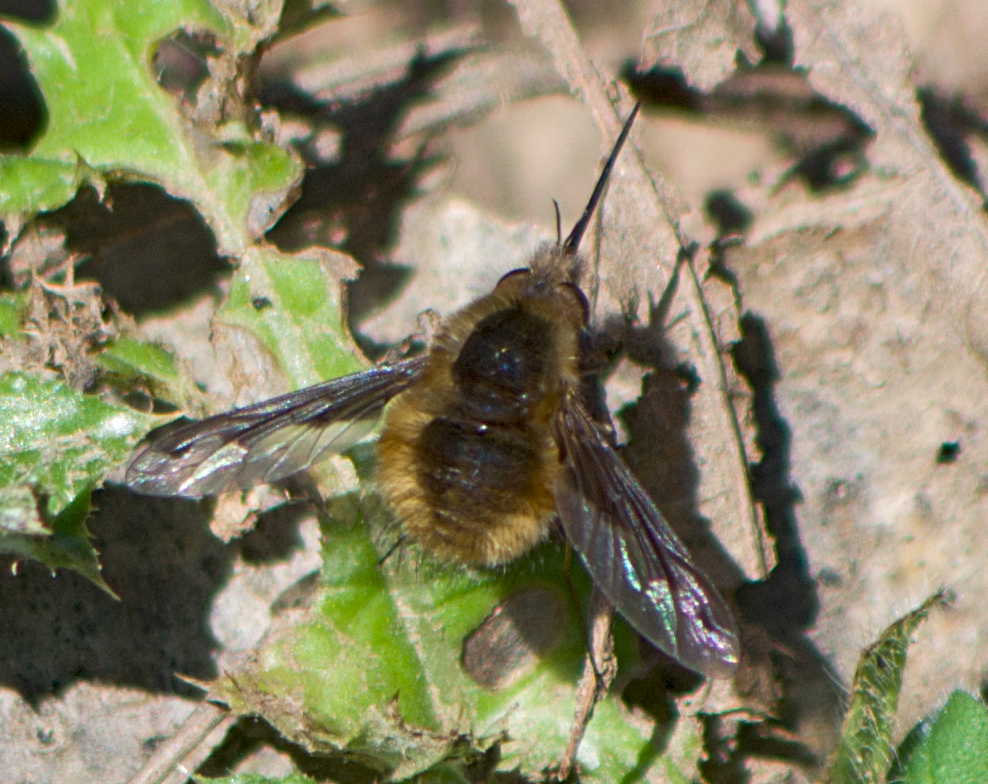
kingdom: Animalia
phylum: Arthropoda
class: Insecta
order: Diptera
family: Bombyliidae
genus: Bombylius
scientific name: Bombylius major
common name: Bee fly
